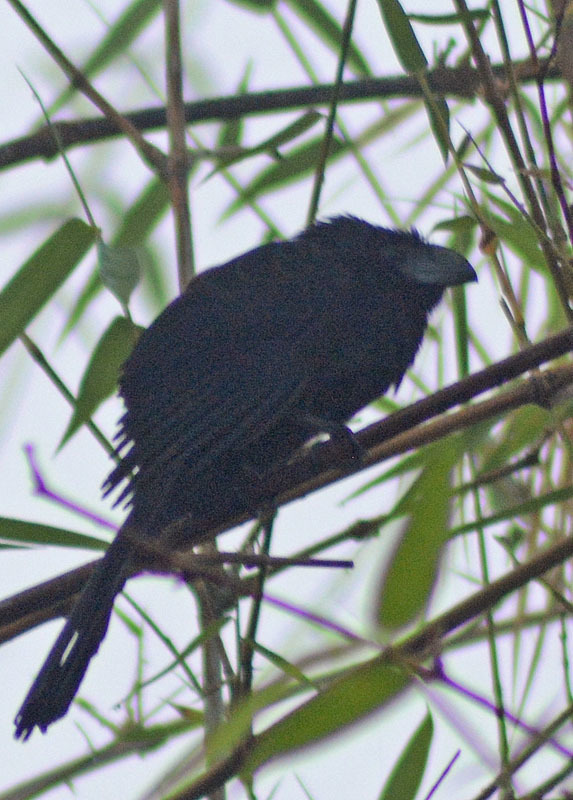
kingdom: Animalia
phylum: Chordata
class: Aves
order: Cuculiformes
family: Cuculidae
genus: Crotophaga
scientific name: Crotophaga sulcirostris
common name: Groove-billed ani
